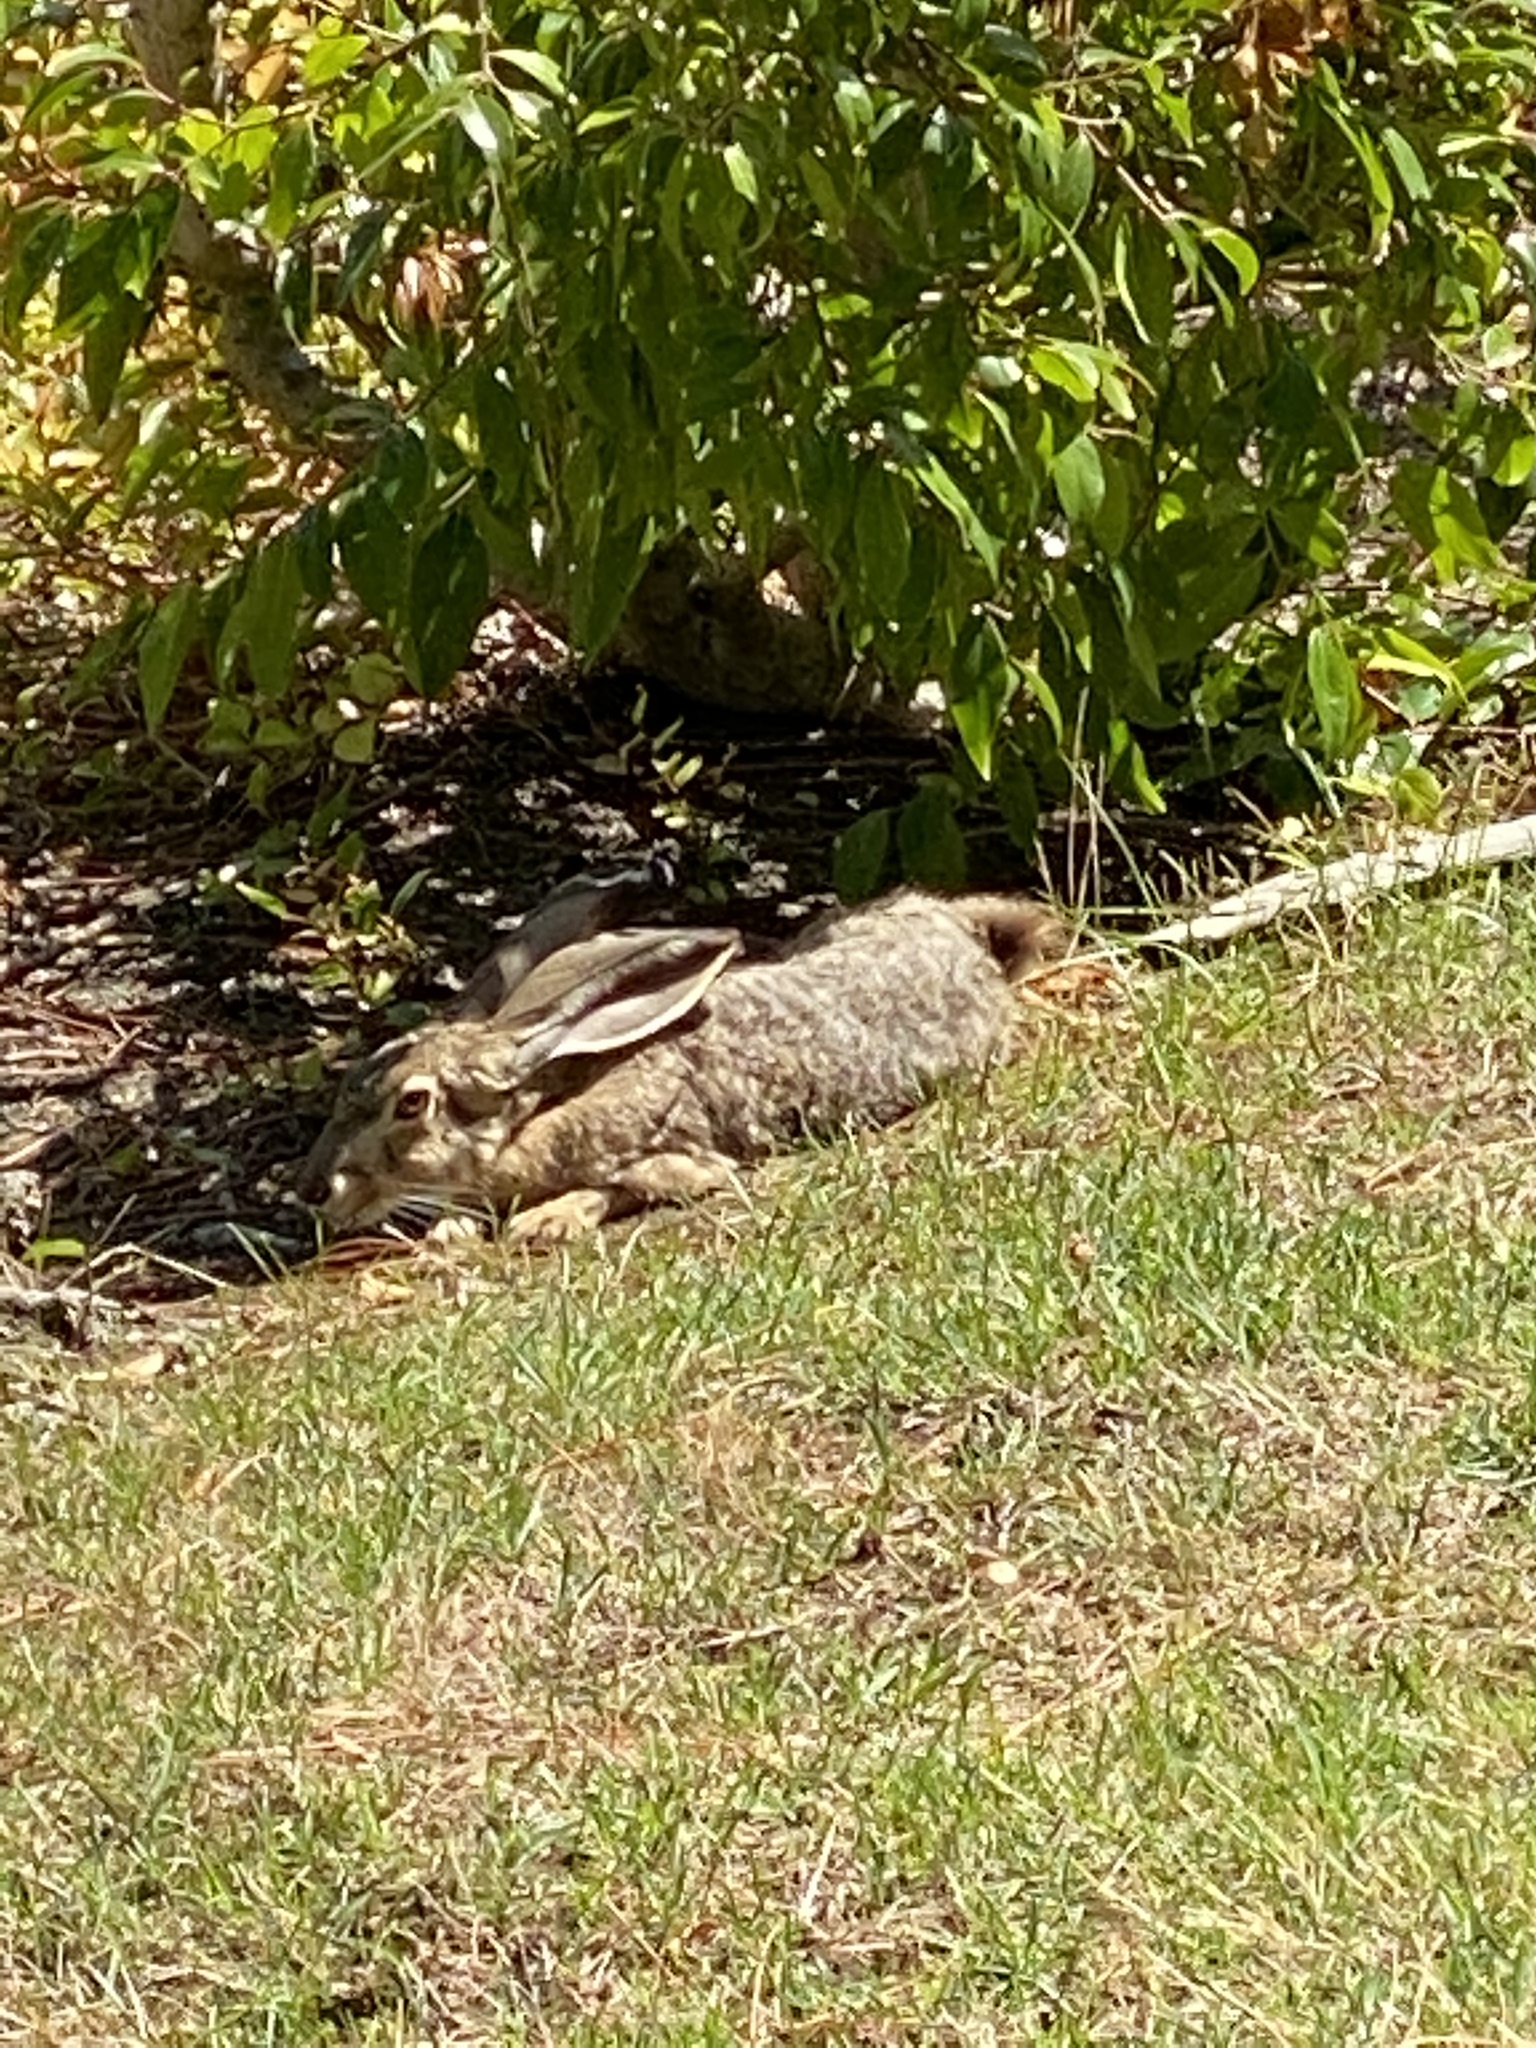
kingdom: Animalia
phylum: Chordata
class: Mammalia
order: Lagomorpha
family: Leporidae
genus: Lepus
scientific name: Lepus californicus
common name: Black-tailed jackrabbit
